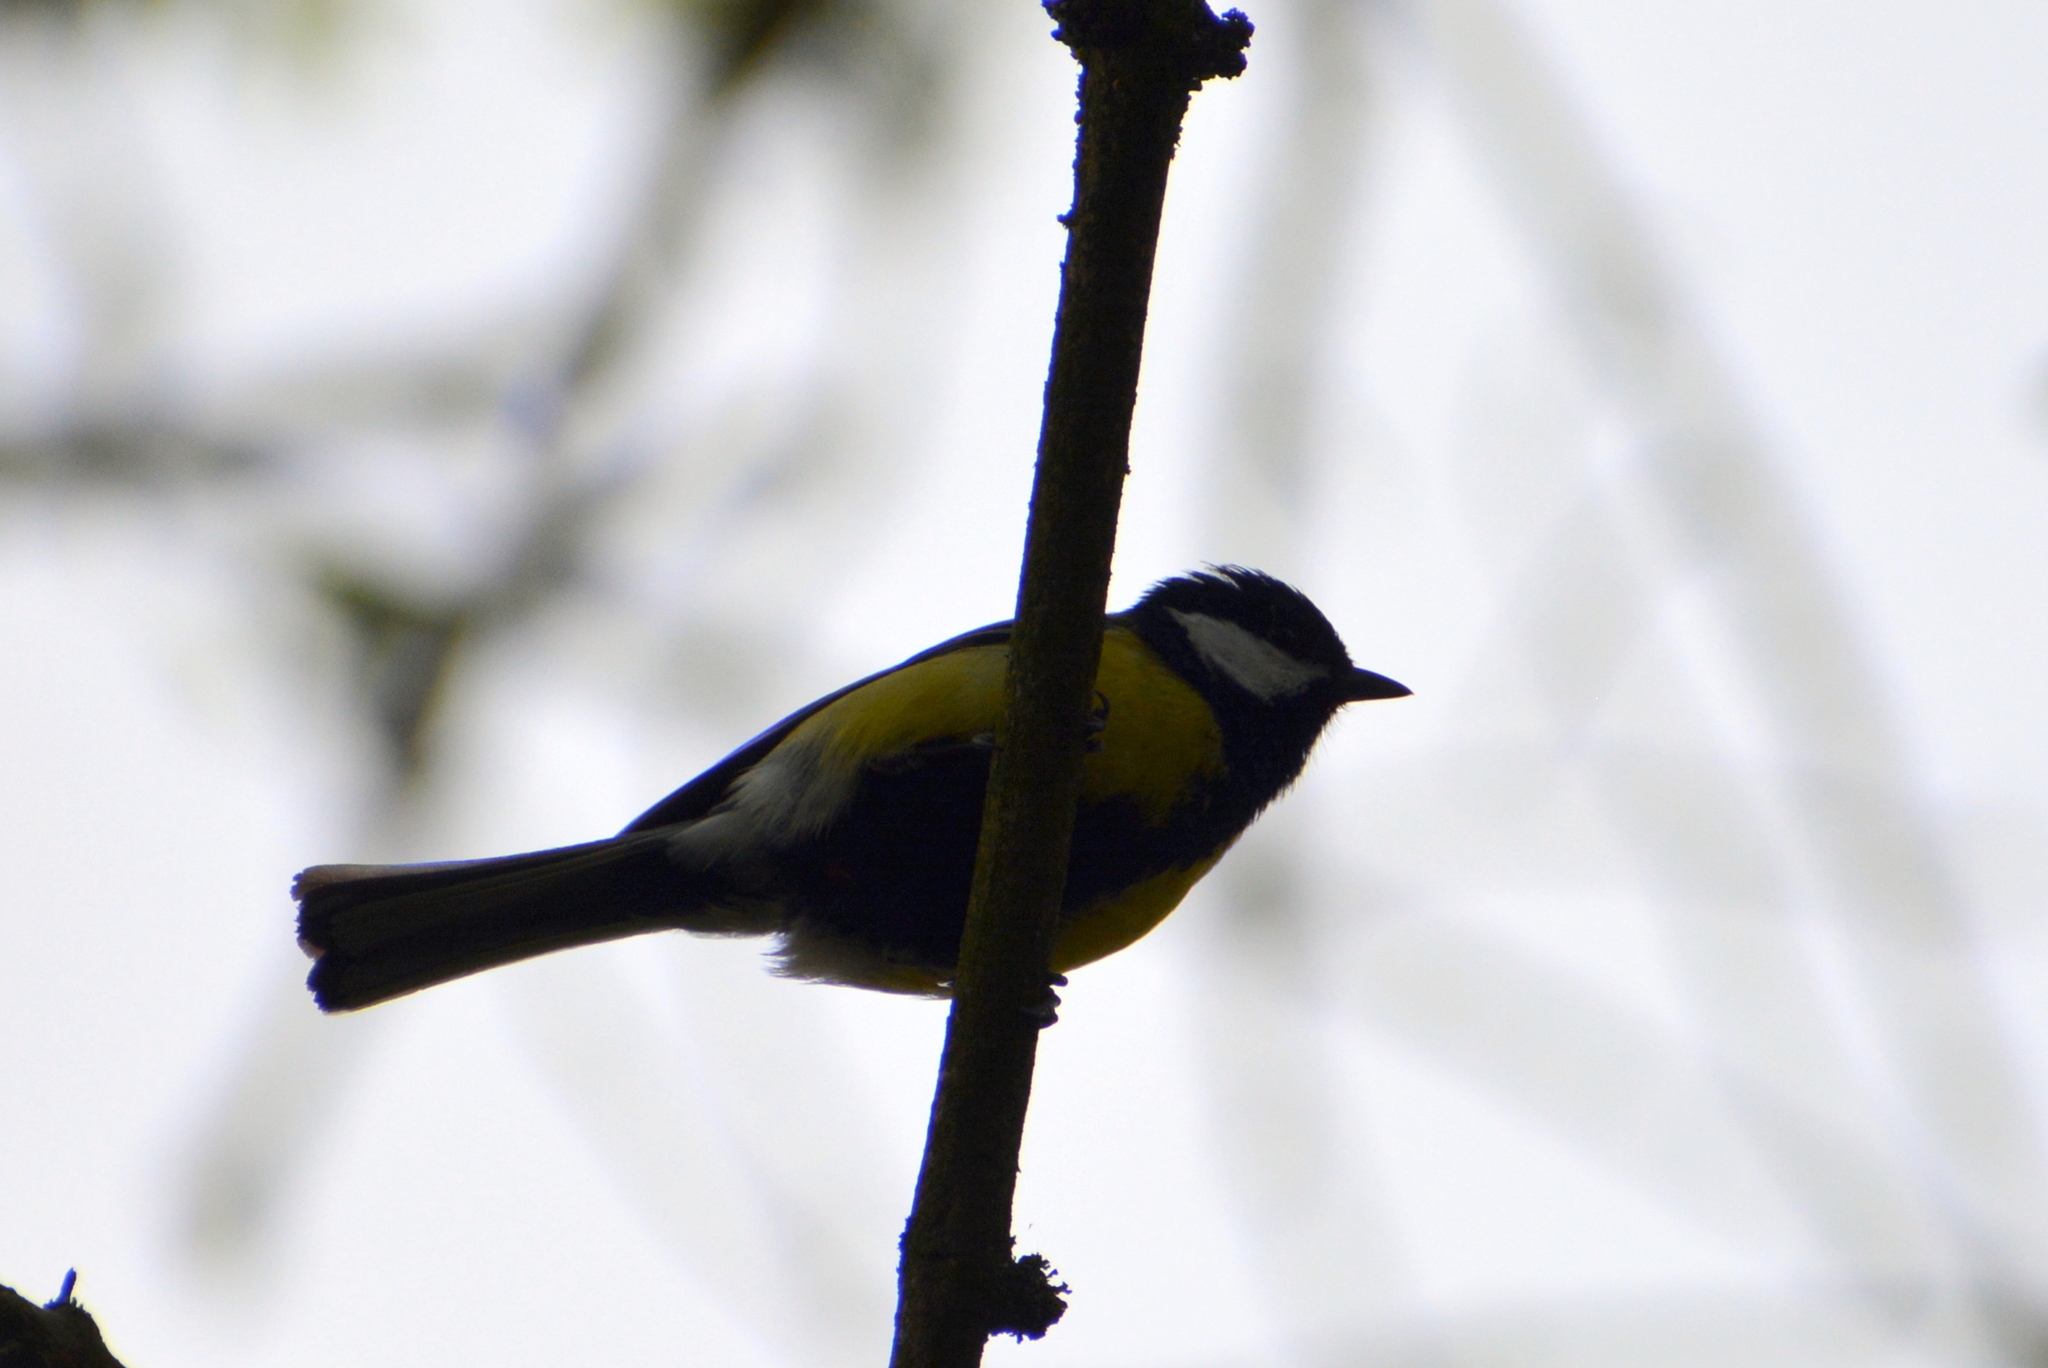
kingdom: Animalia
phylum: Chordata
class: Aves
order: Passeriformes
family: Paridae
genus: Parus
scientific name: Parus major
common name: Great tit
